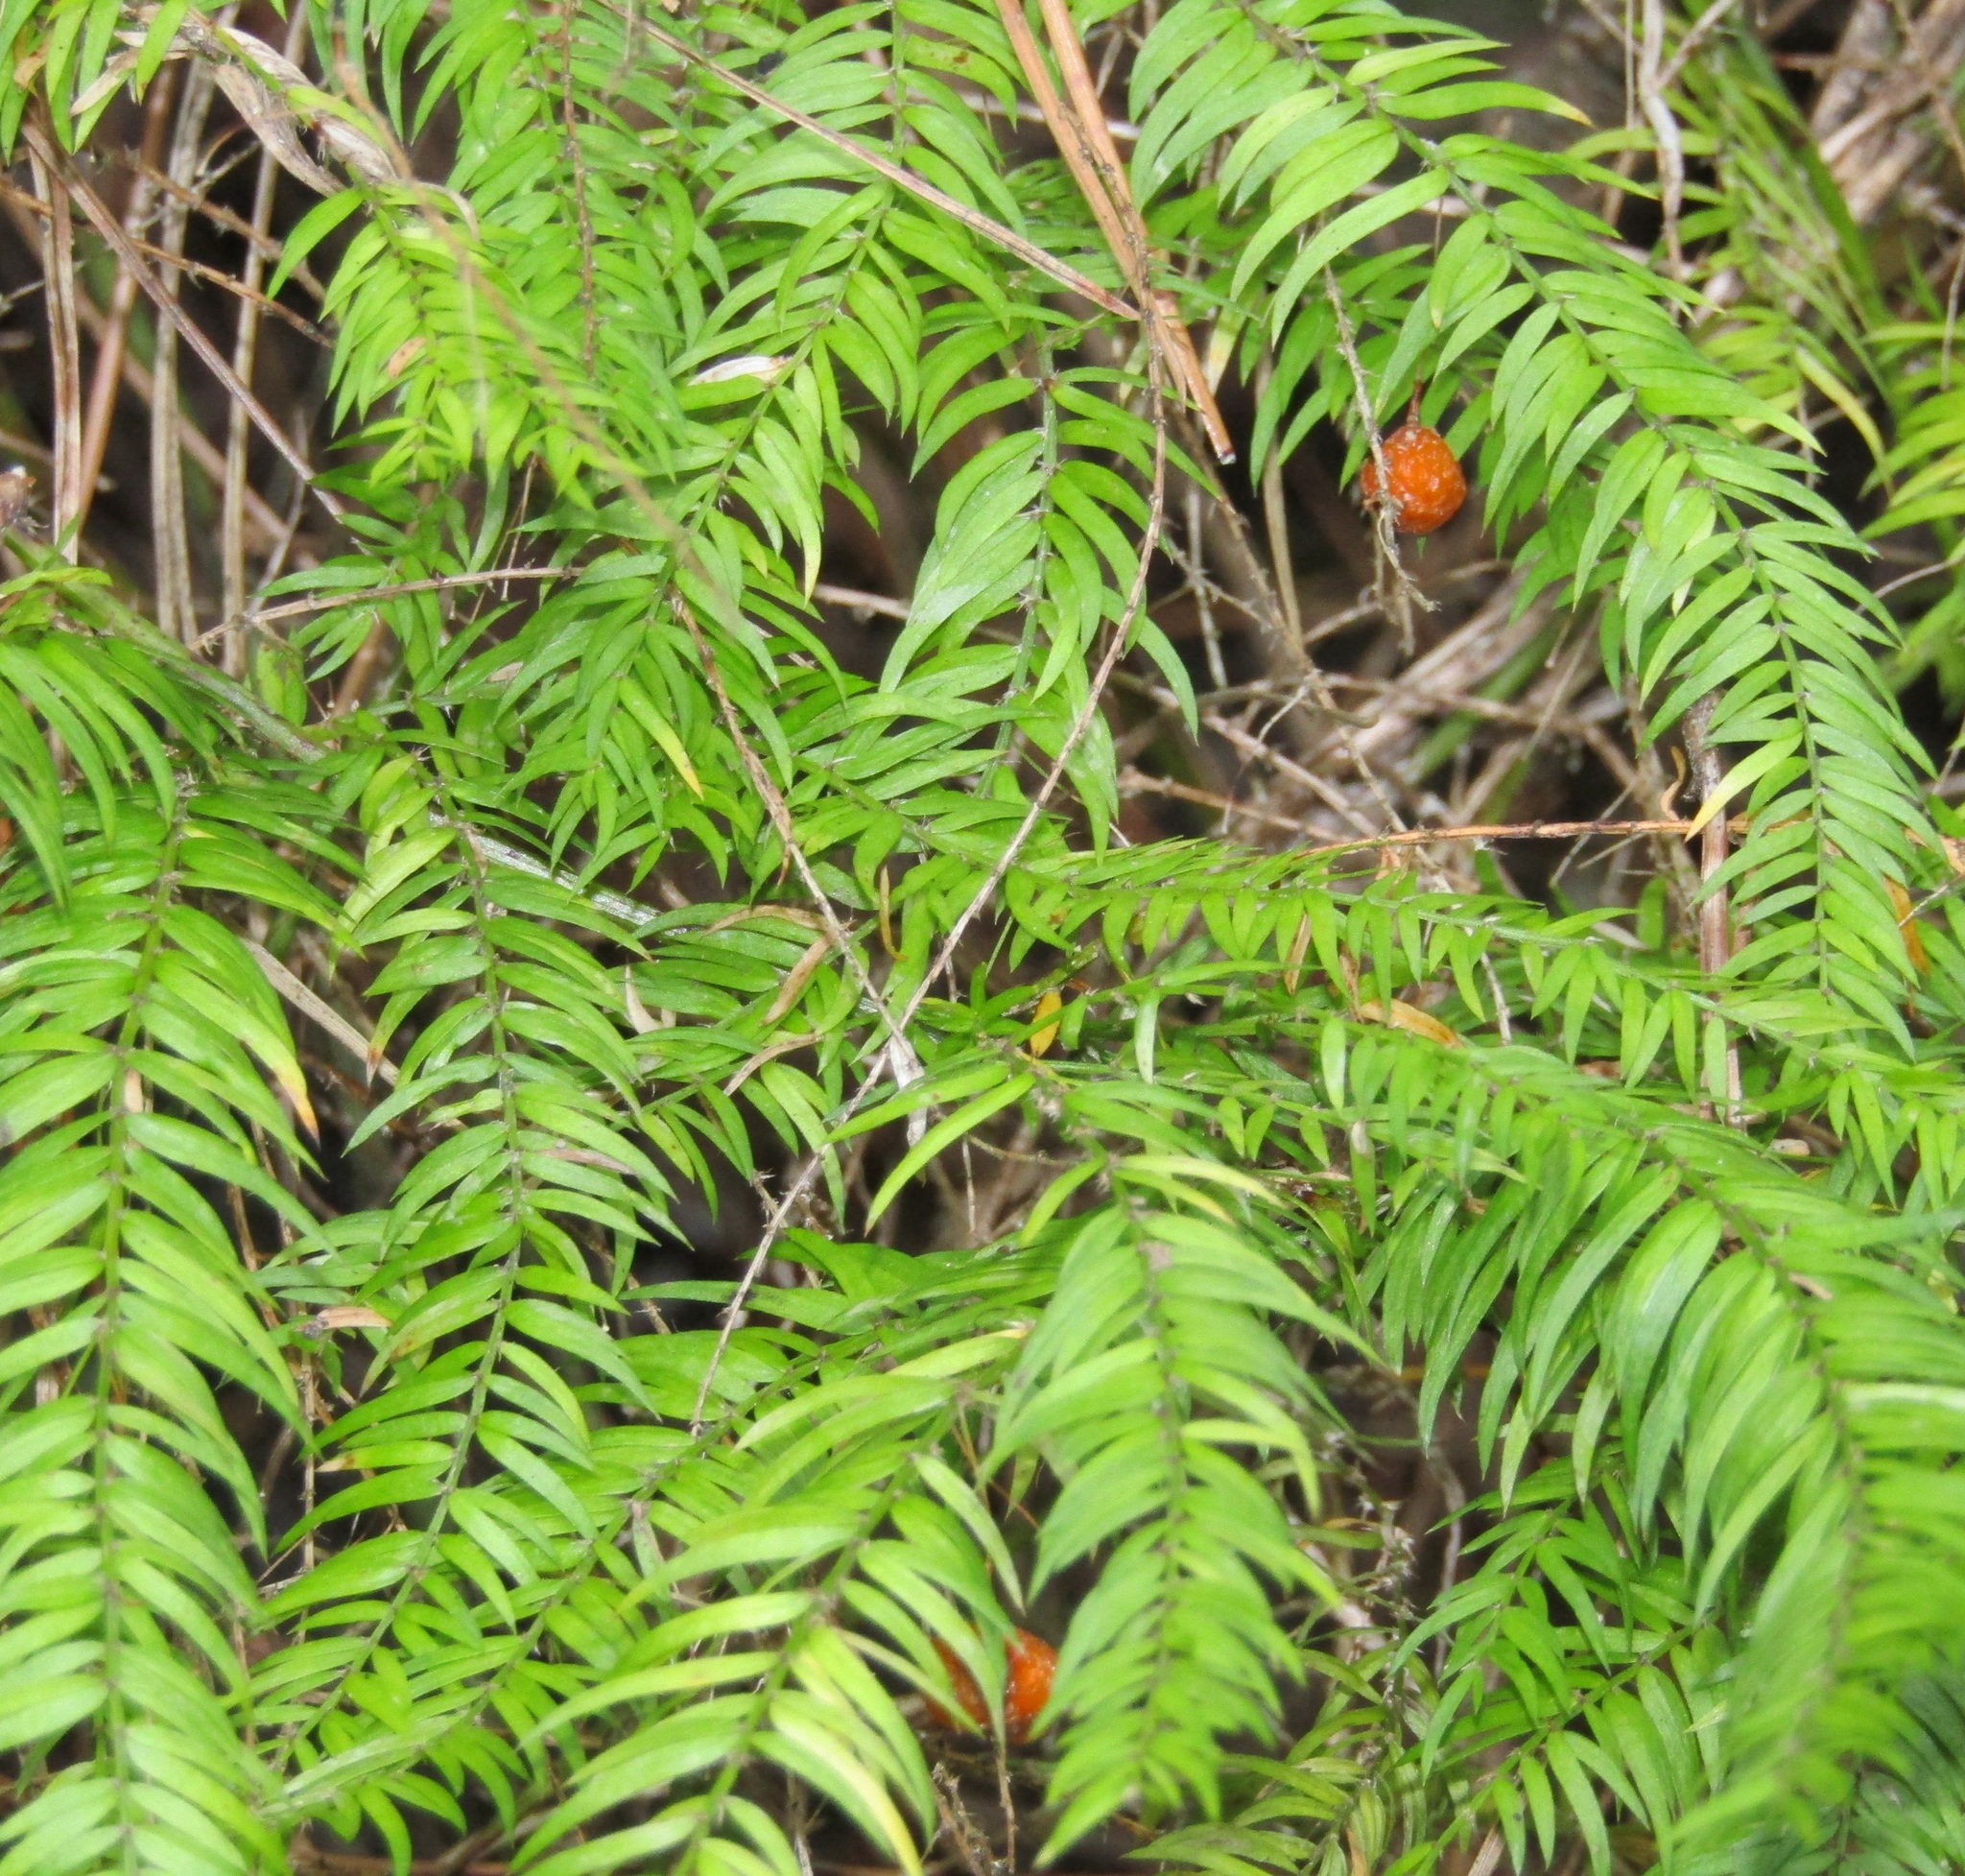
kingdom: Plantae
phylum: Tracheophyta
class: Liliopsida
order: Asparagales
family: Asparagaceae
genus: Asparagus
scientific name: Asparagus scandens
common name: Asparagus-fern
